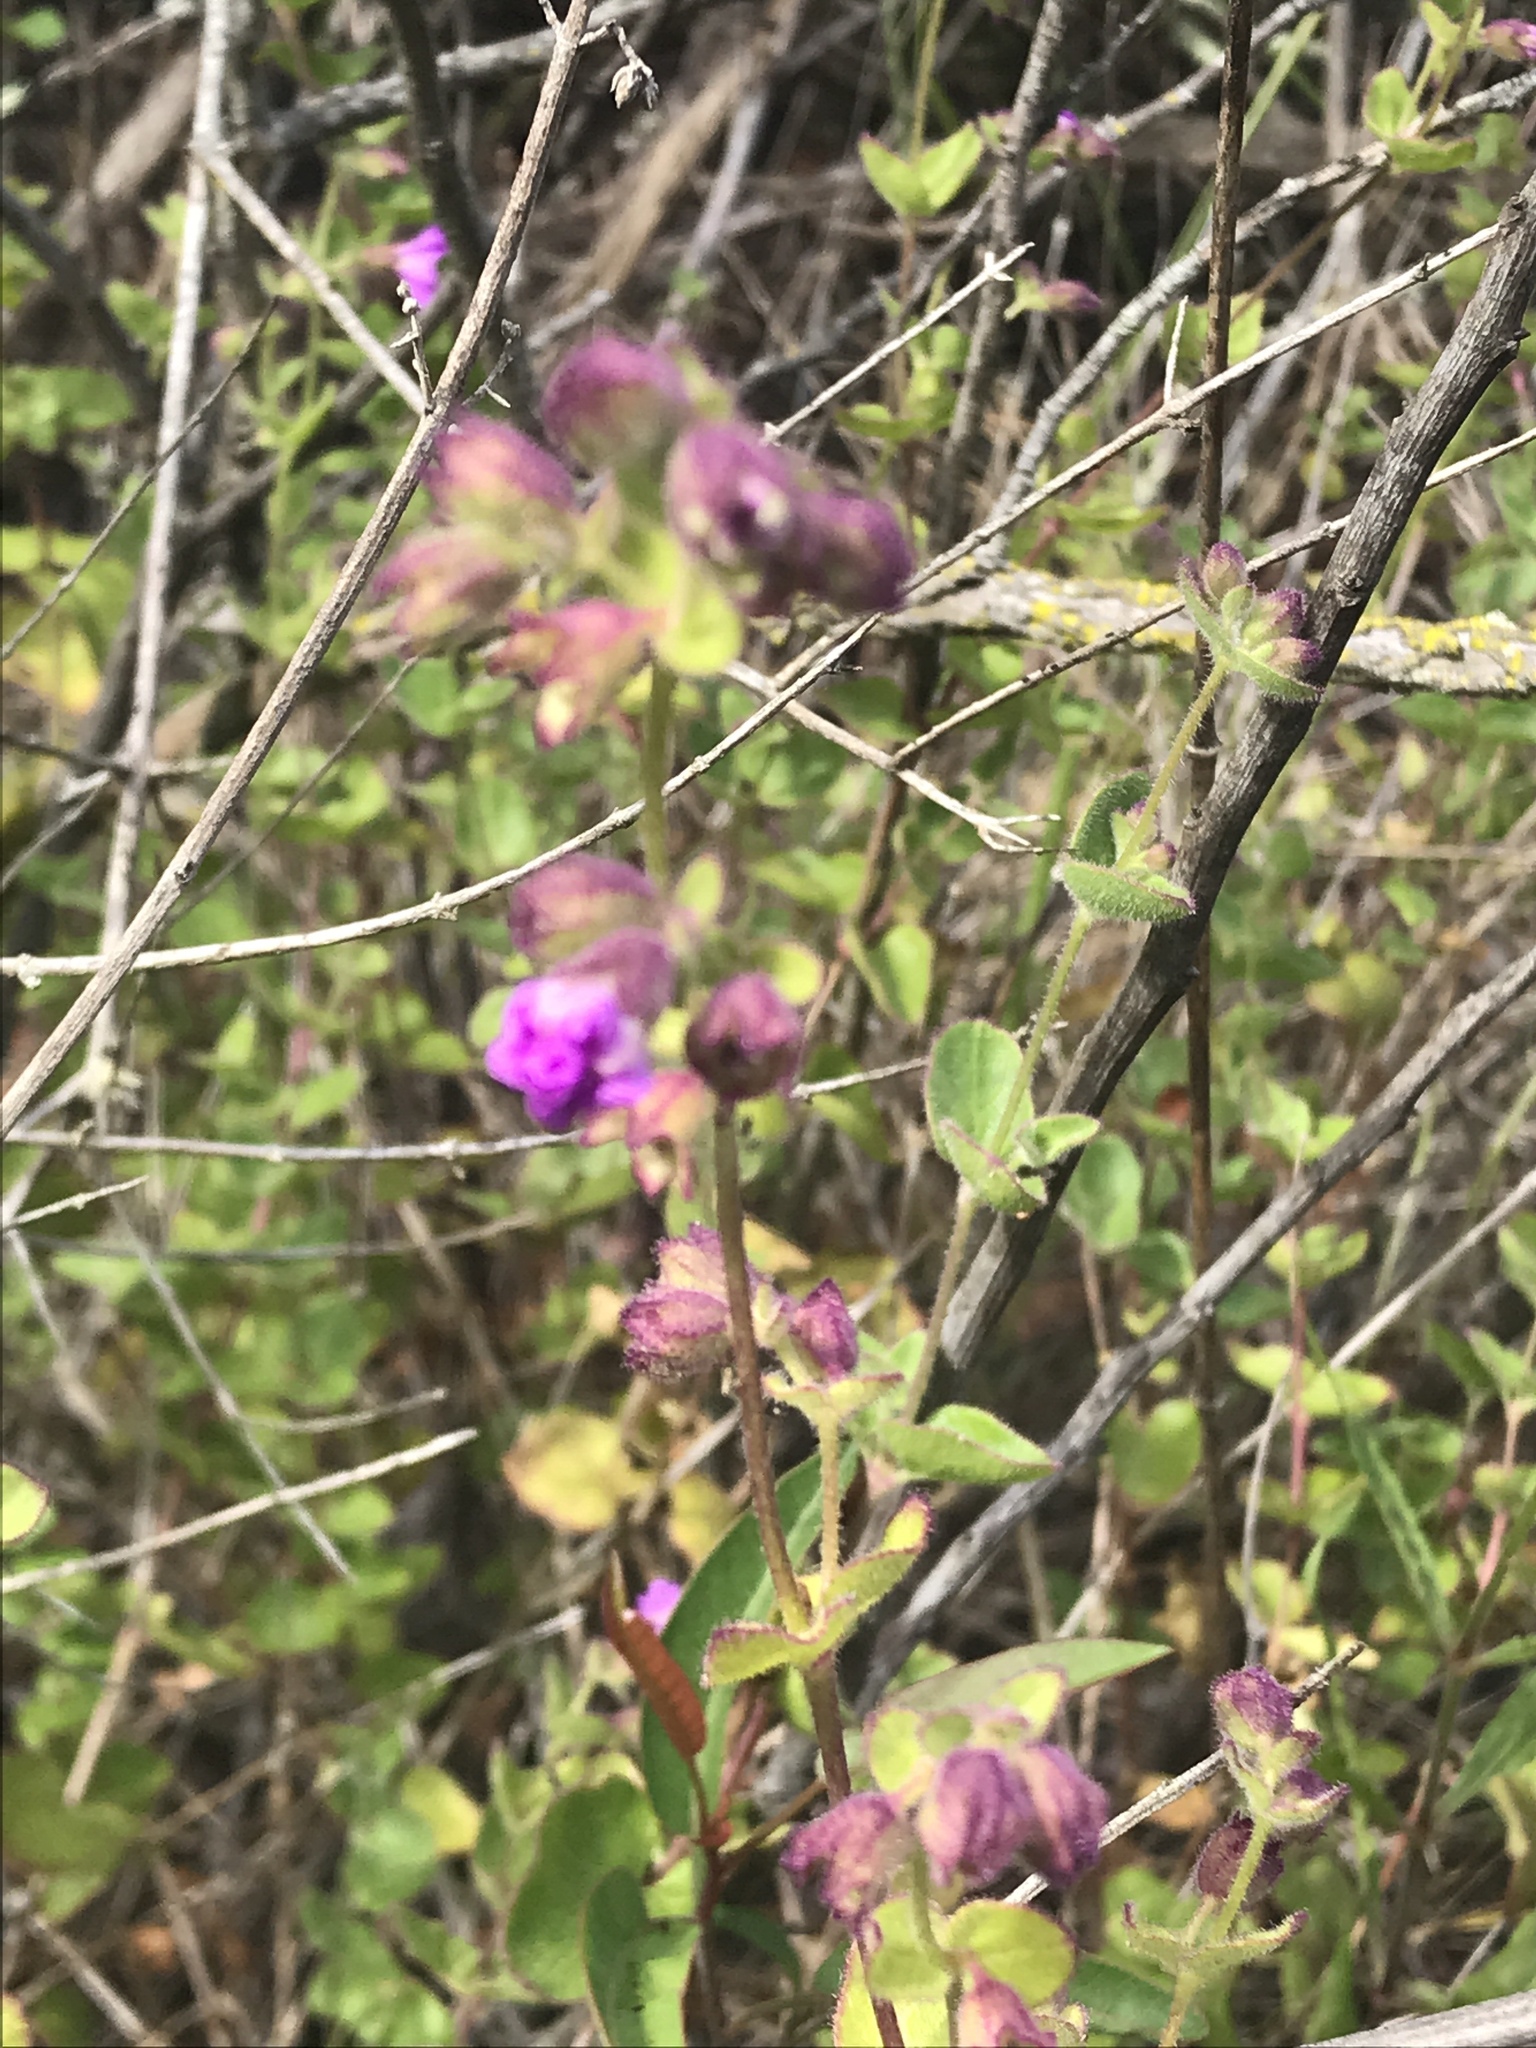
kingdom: Plantae
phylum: Tracheophyta
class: Magnoliopsida
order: Caryophyllales
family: Nyctaginaceae
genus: Mirabilis
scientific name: Mirabilis laevis
